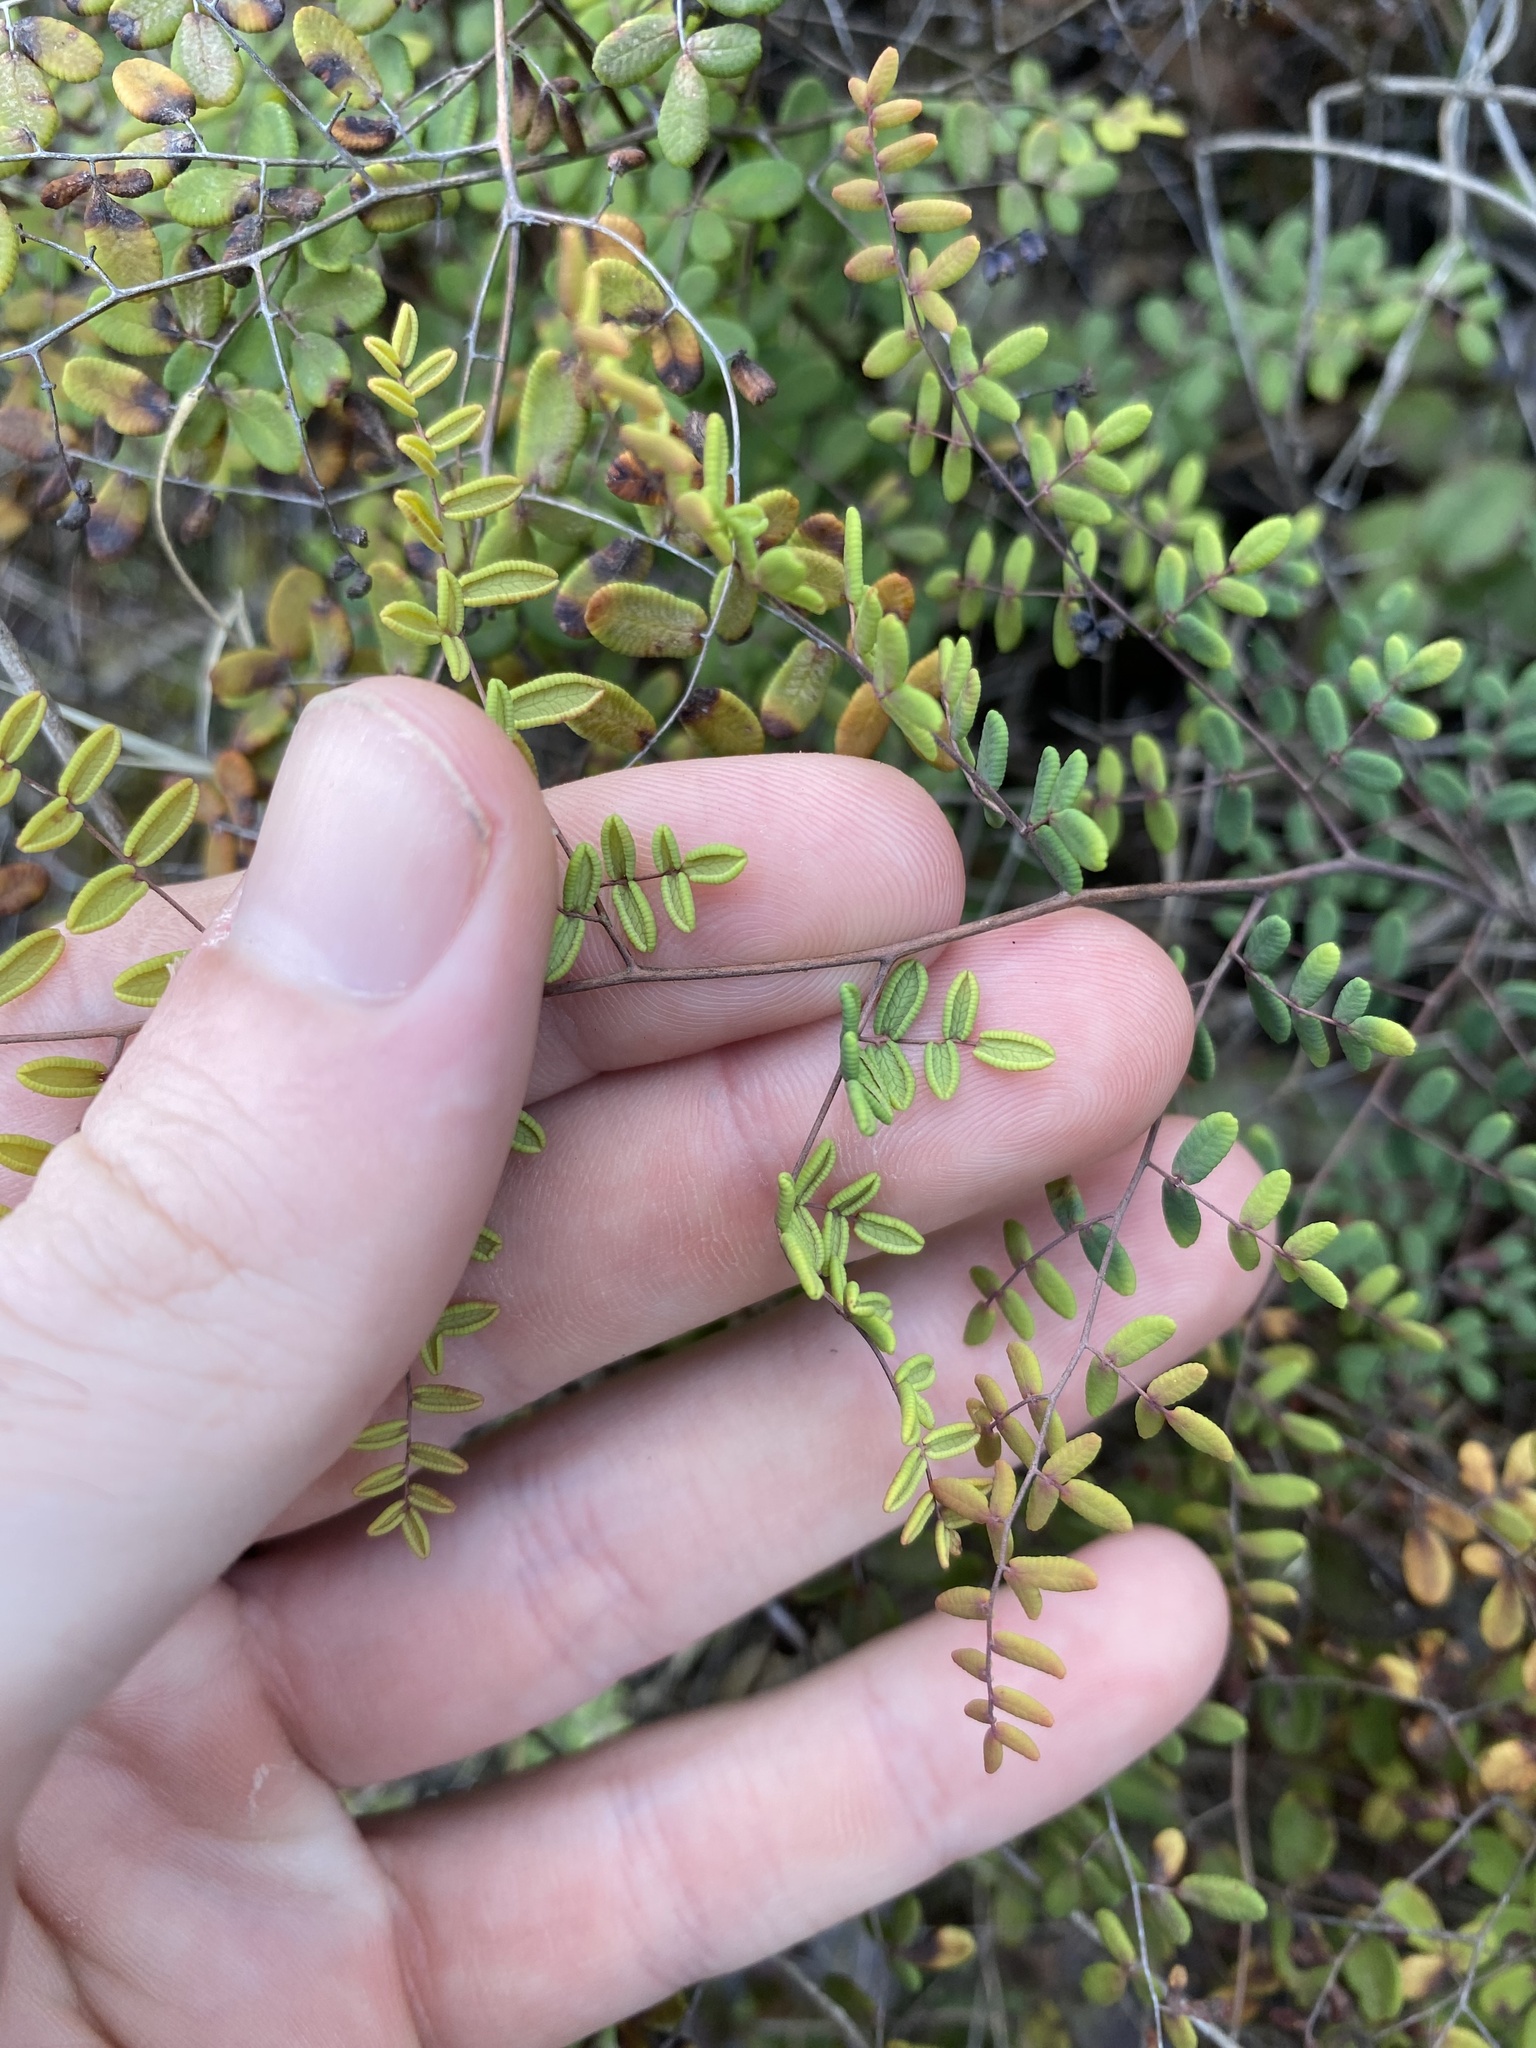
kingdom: Plantae
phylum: Tracheophyta
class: Polypodiopsida
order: Polypodiales
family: Pteridaceae
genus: Pellaea
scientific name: Pellaea andromedifolia
